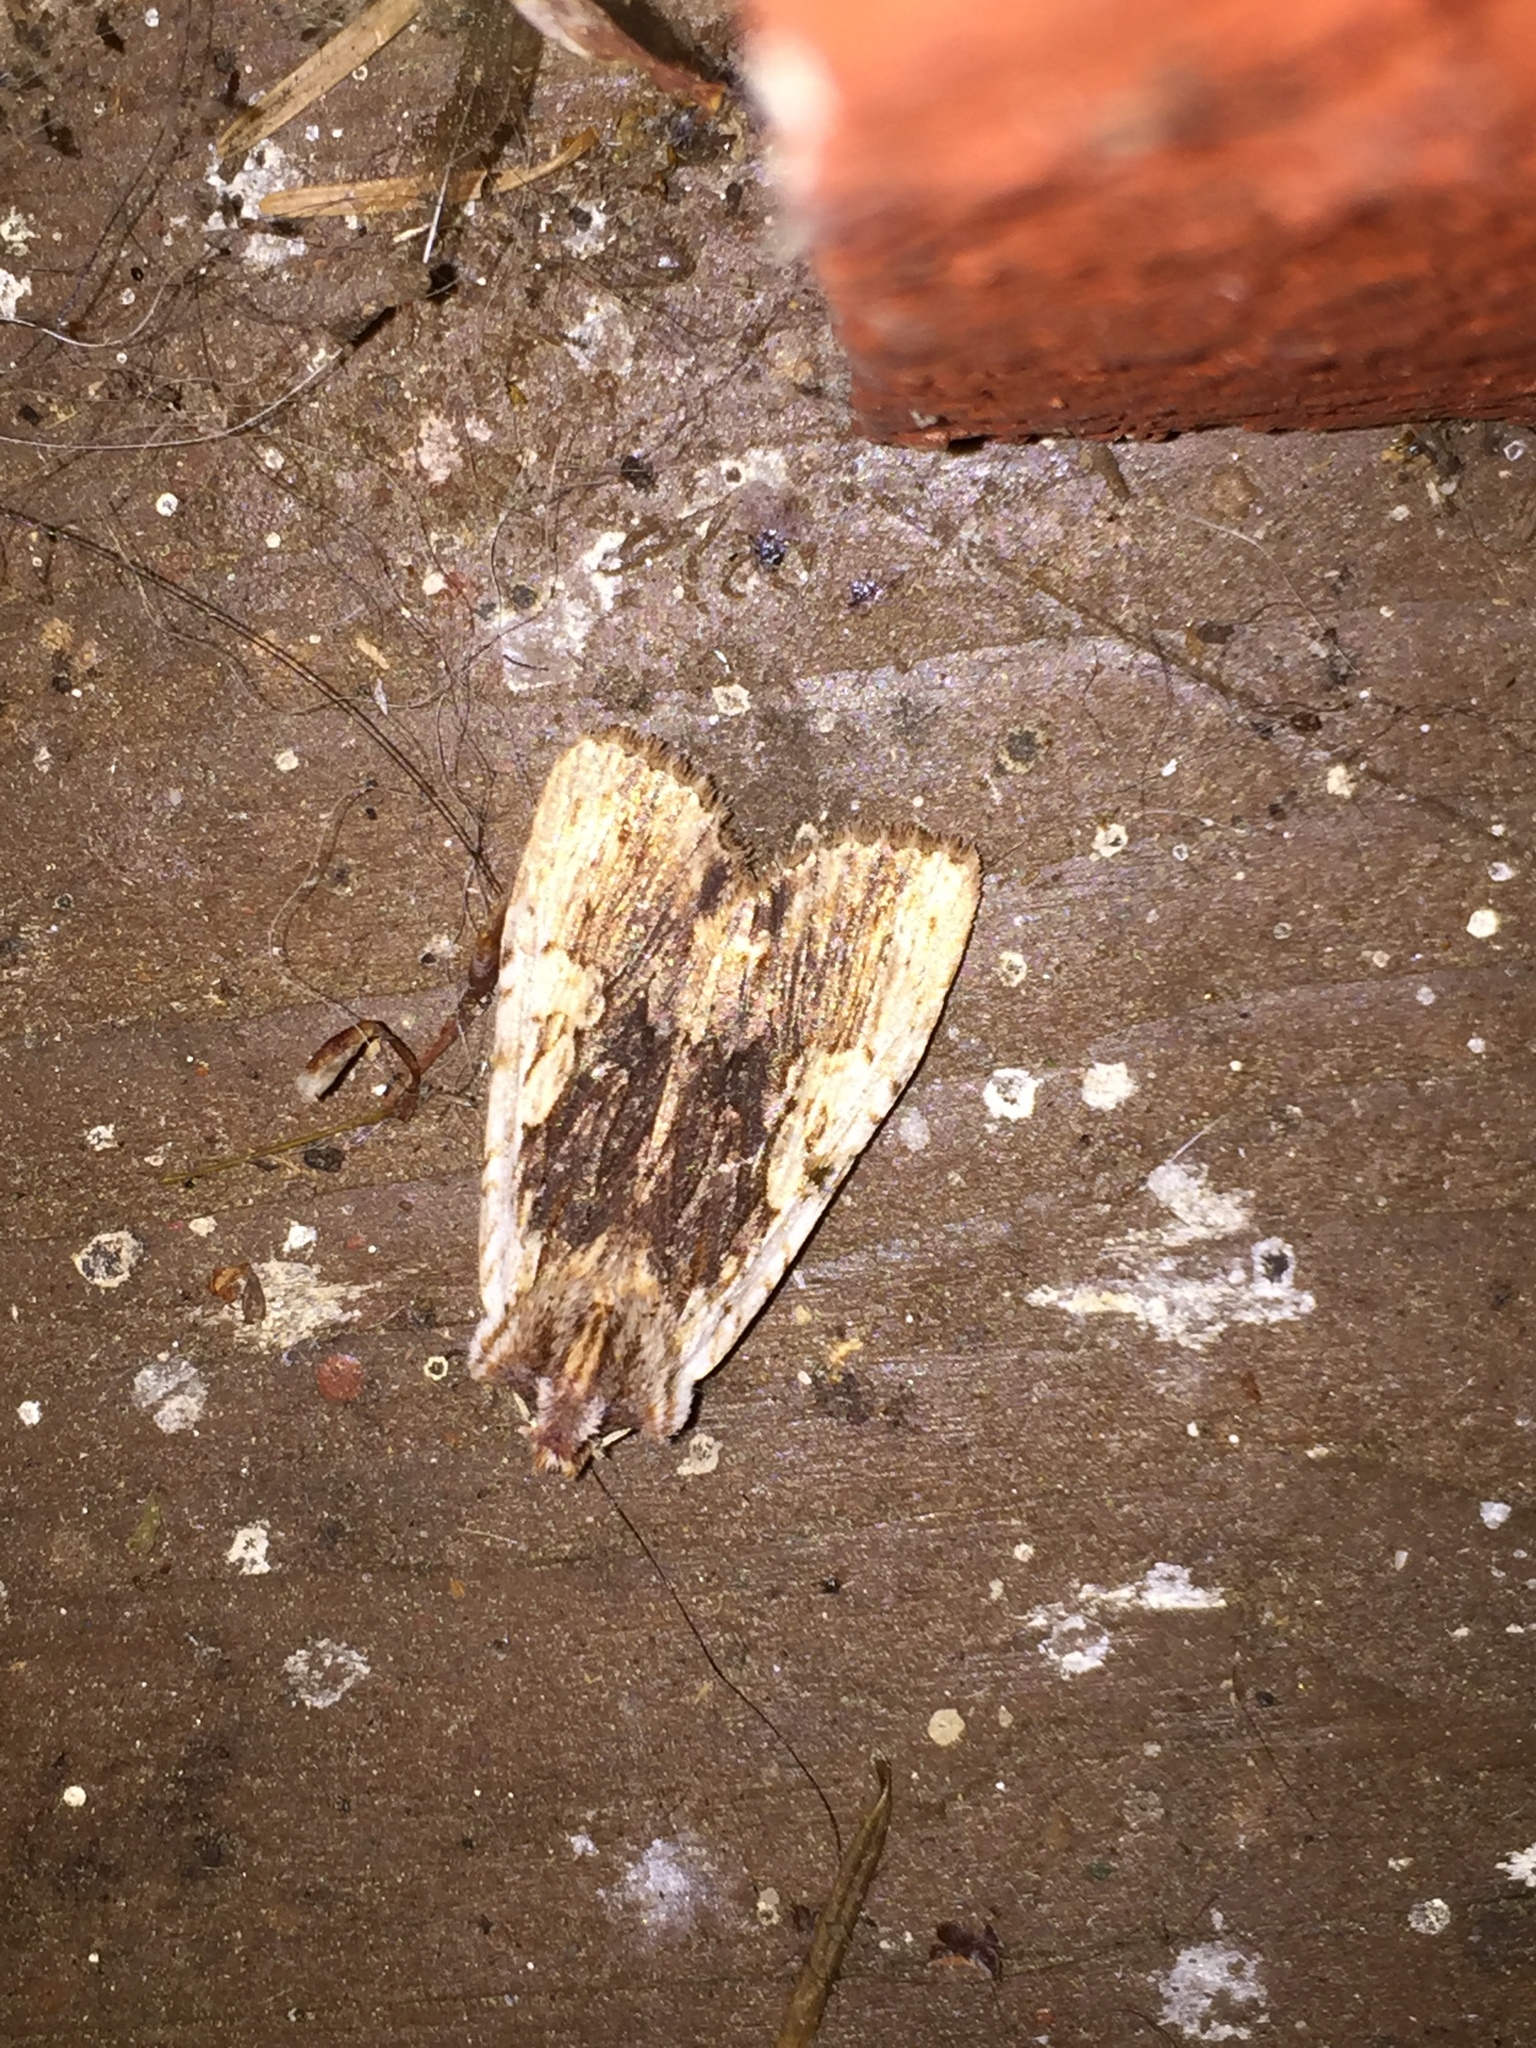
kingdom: Animalia
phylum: Arthropoda
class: Insecta
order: Lepidoptera
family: Noctuidae
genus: Lithophane
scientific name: Lithophane petulca
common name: Wanton pinion
